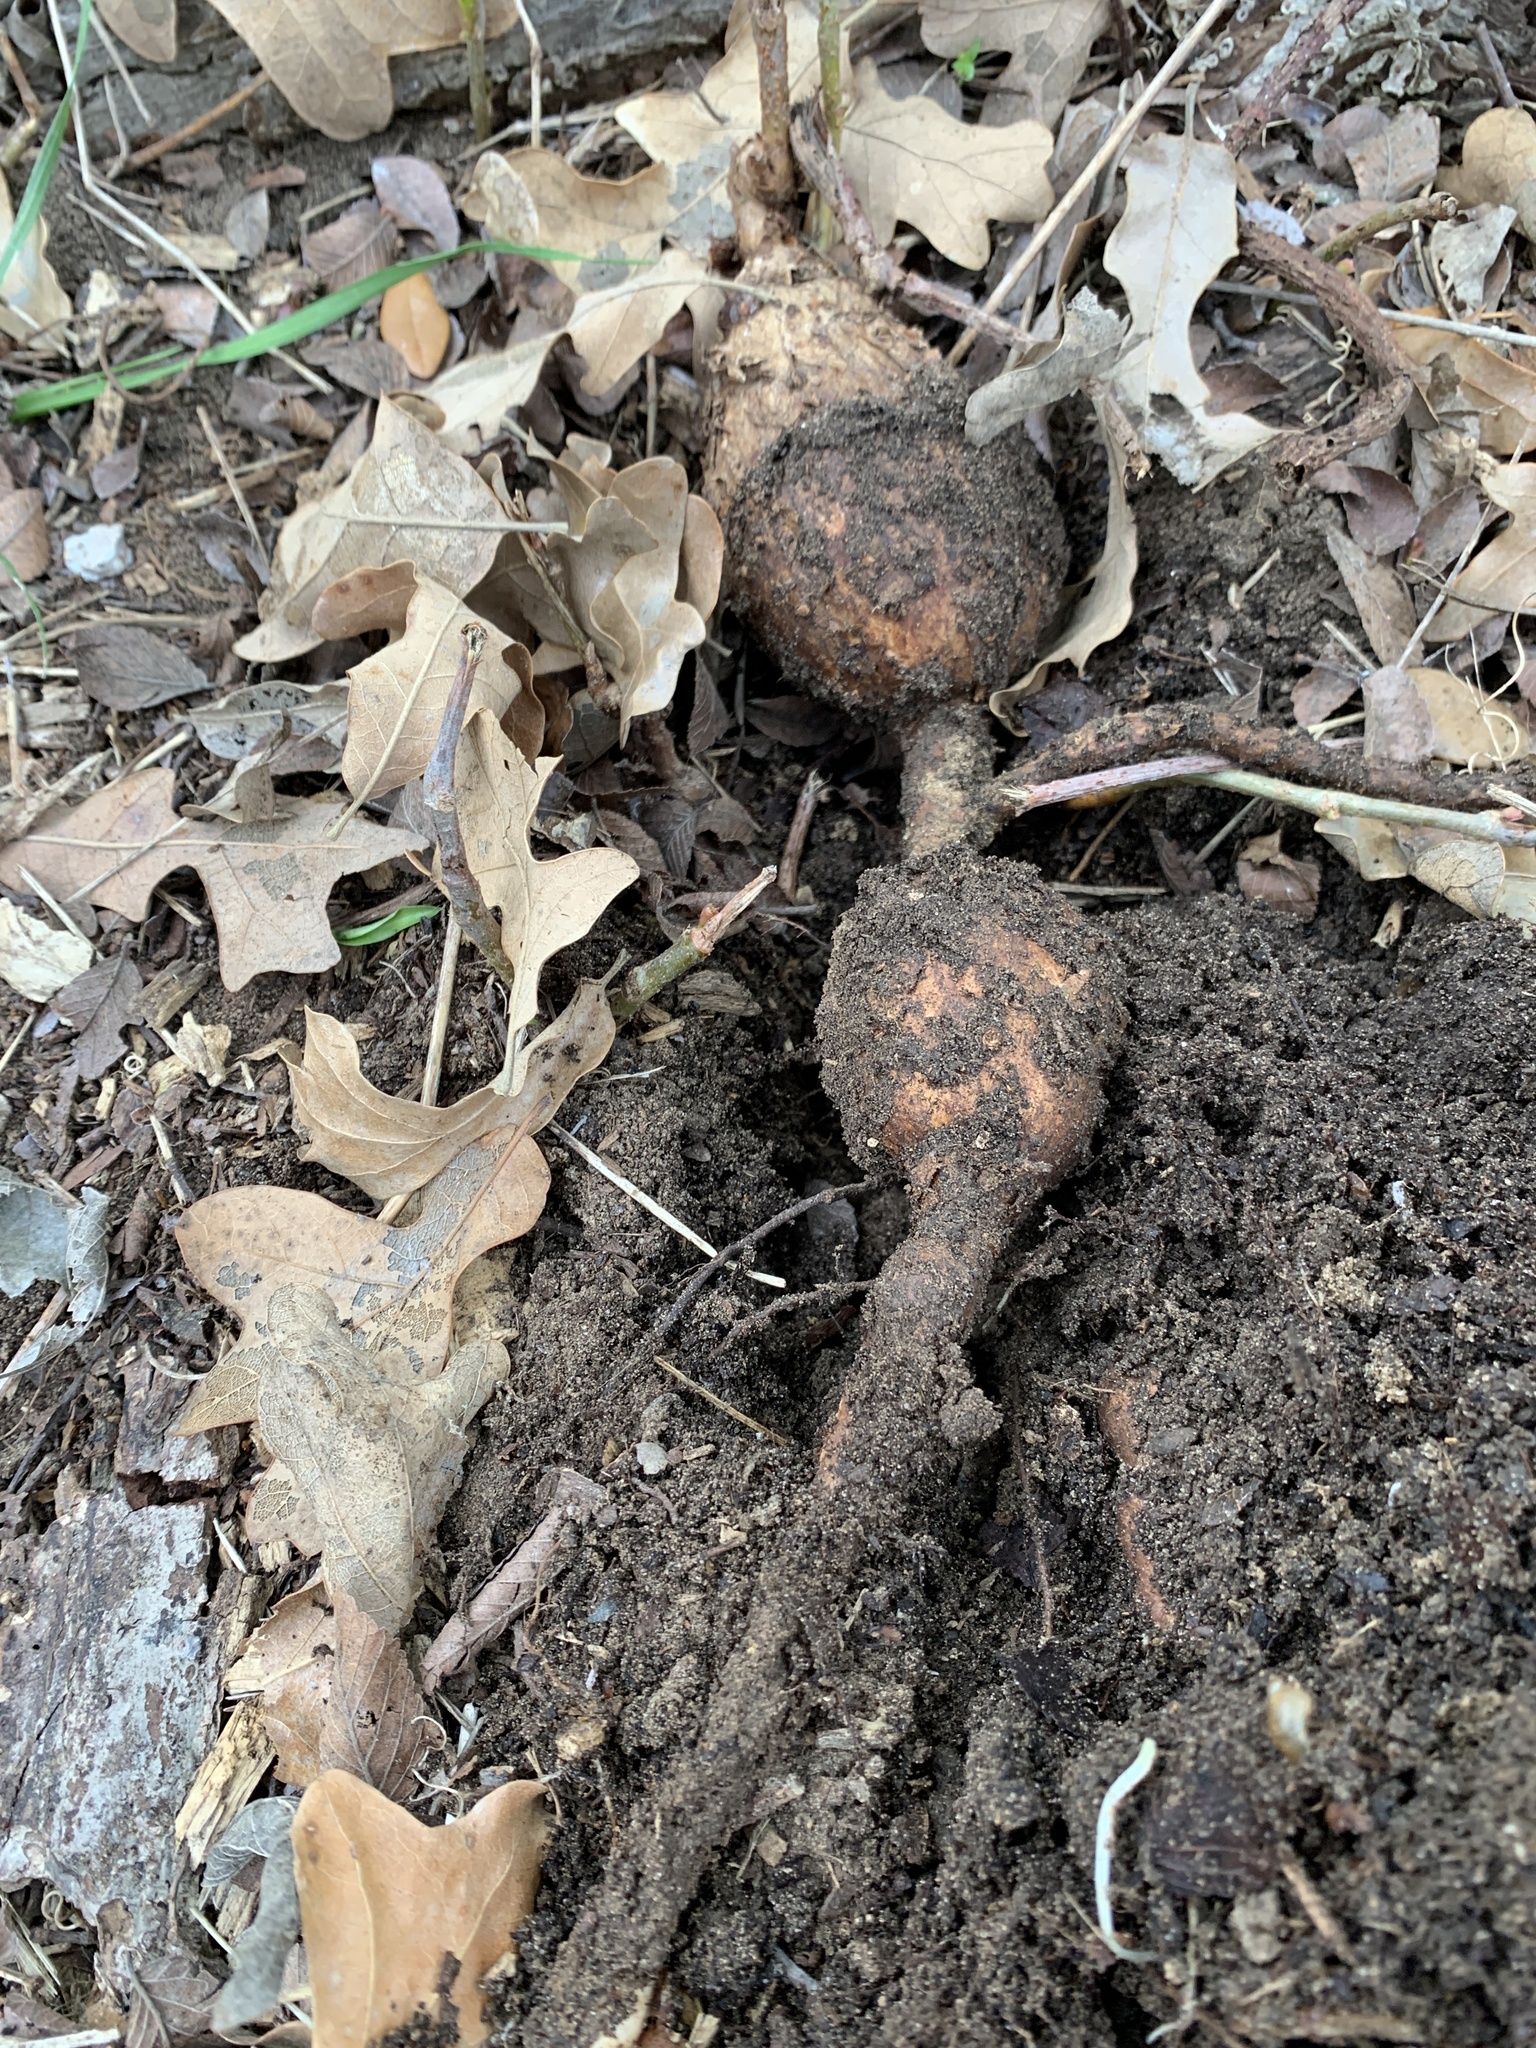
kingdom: Plantae
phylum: Tracheophyta
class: Magnoliopsida
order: Vitales
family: Vitaceae
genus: Cissus
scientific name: Cissus trifoliata
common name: Vine-sorrel
